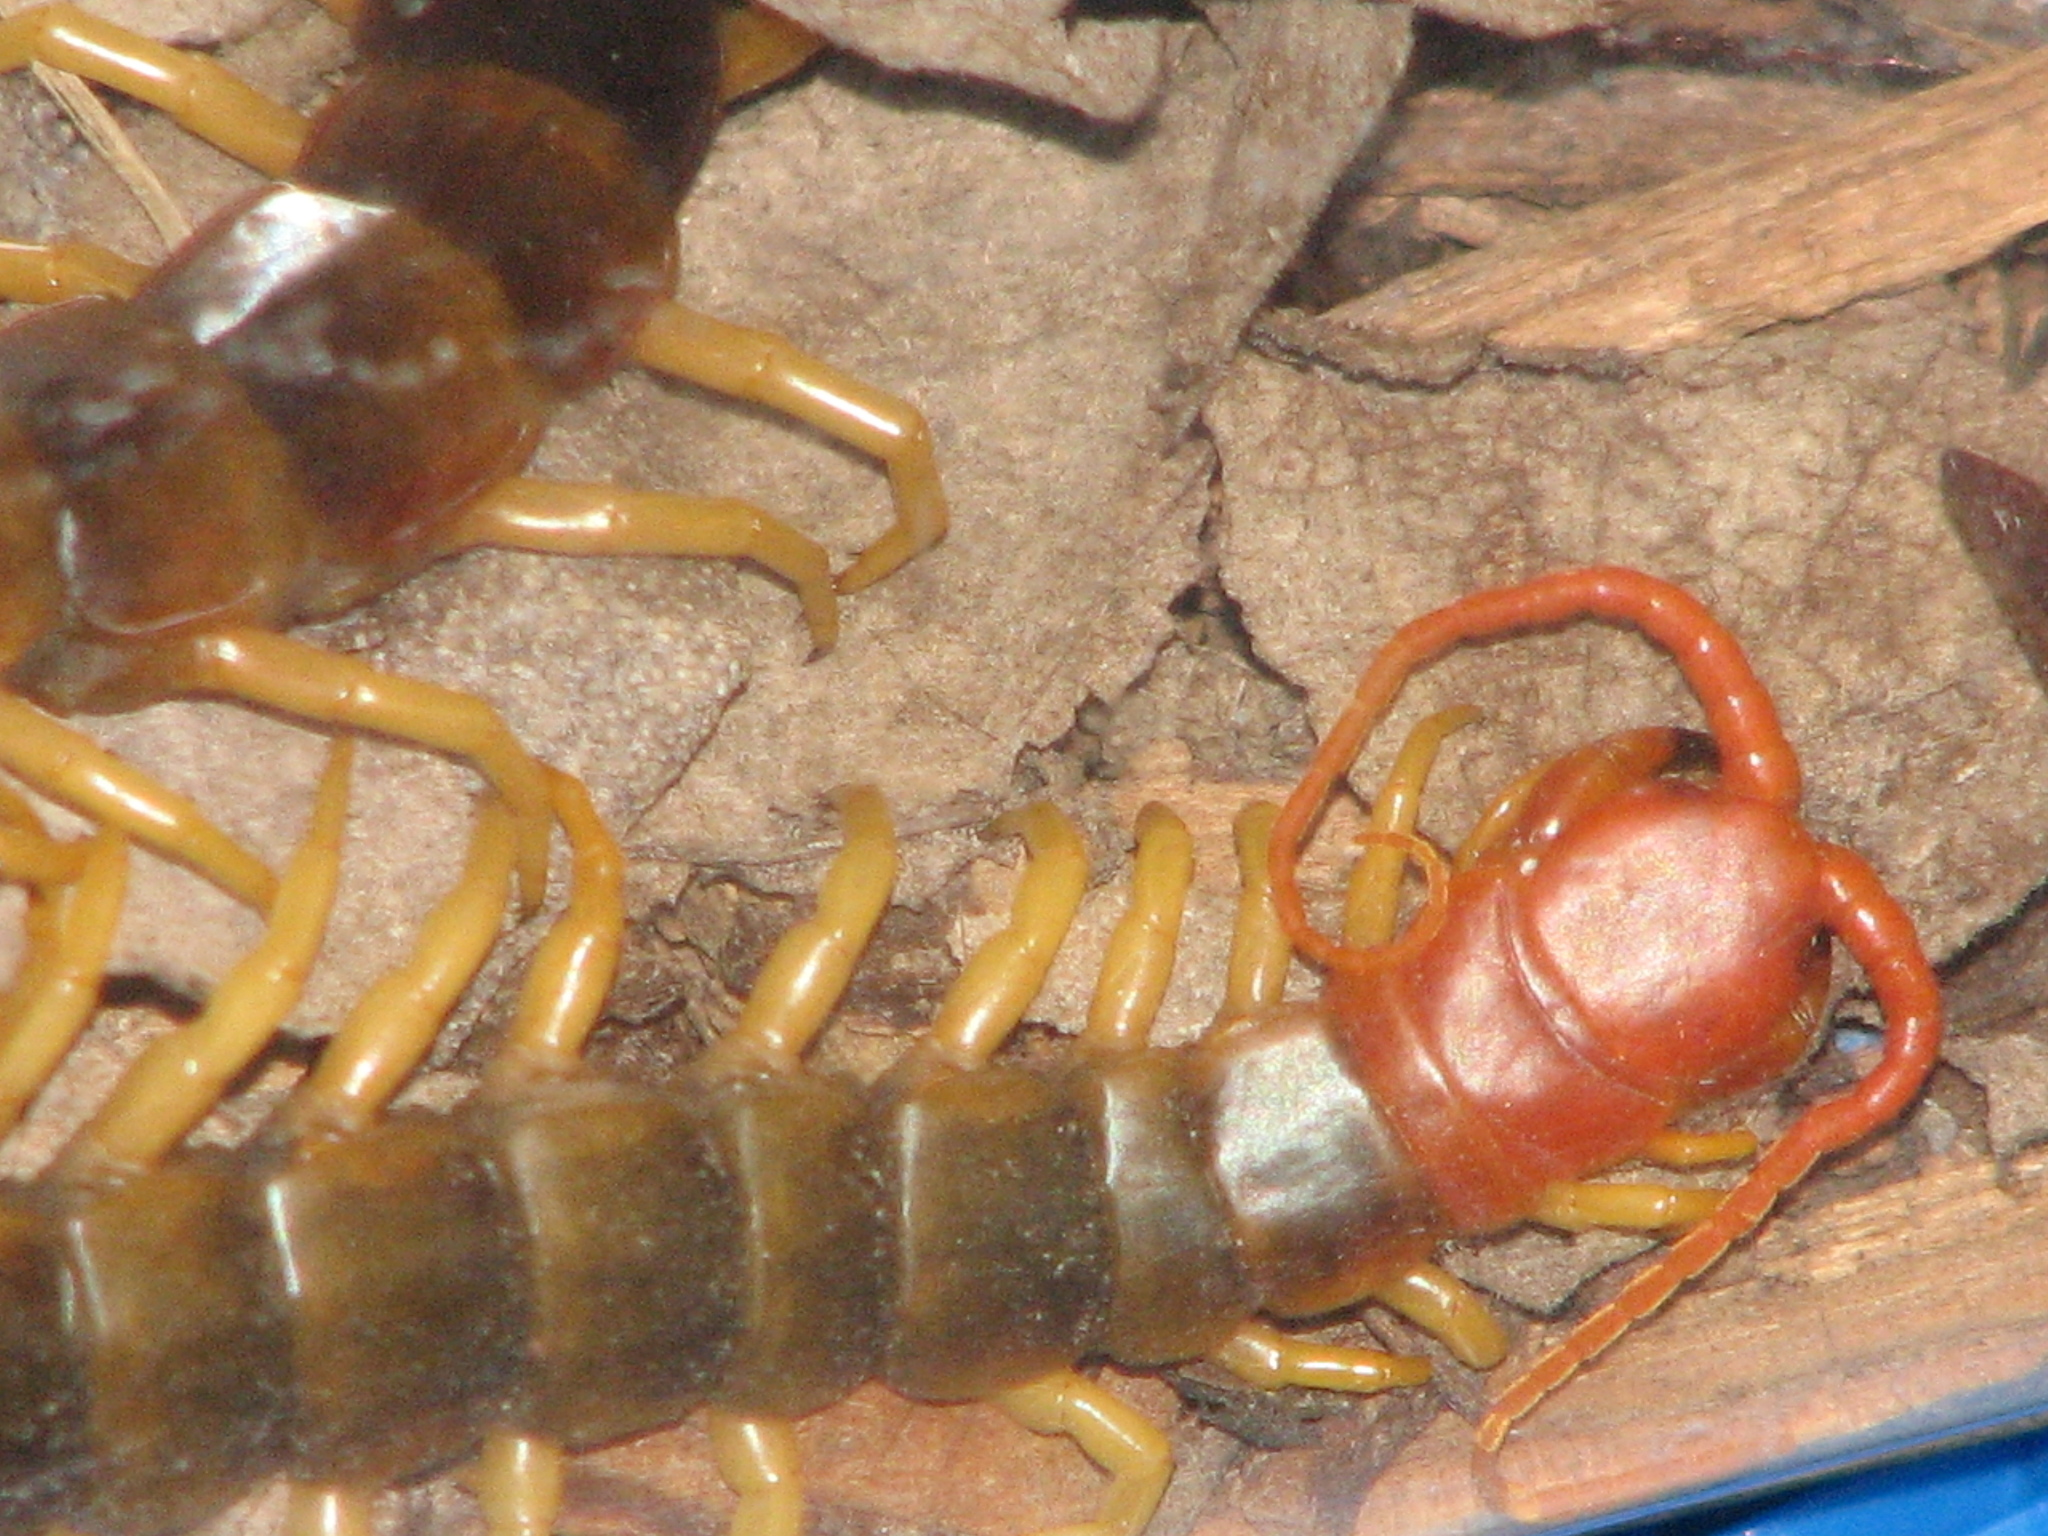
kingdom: Animalia
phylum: Arthropoda
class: Chilopoda
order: Scolopendromorpha
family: Scolopendridae
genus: Scolopendra
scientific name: Scolopendra heros
